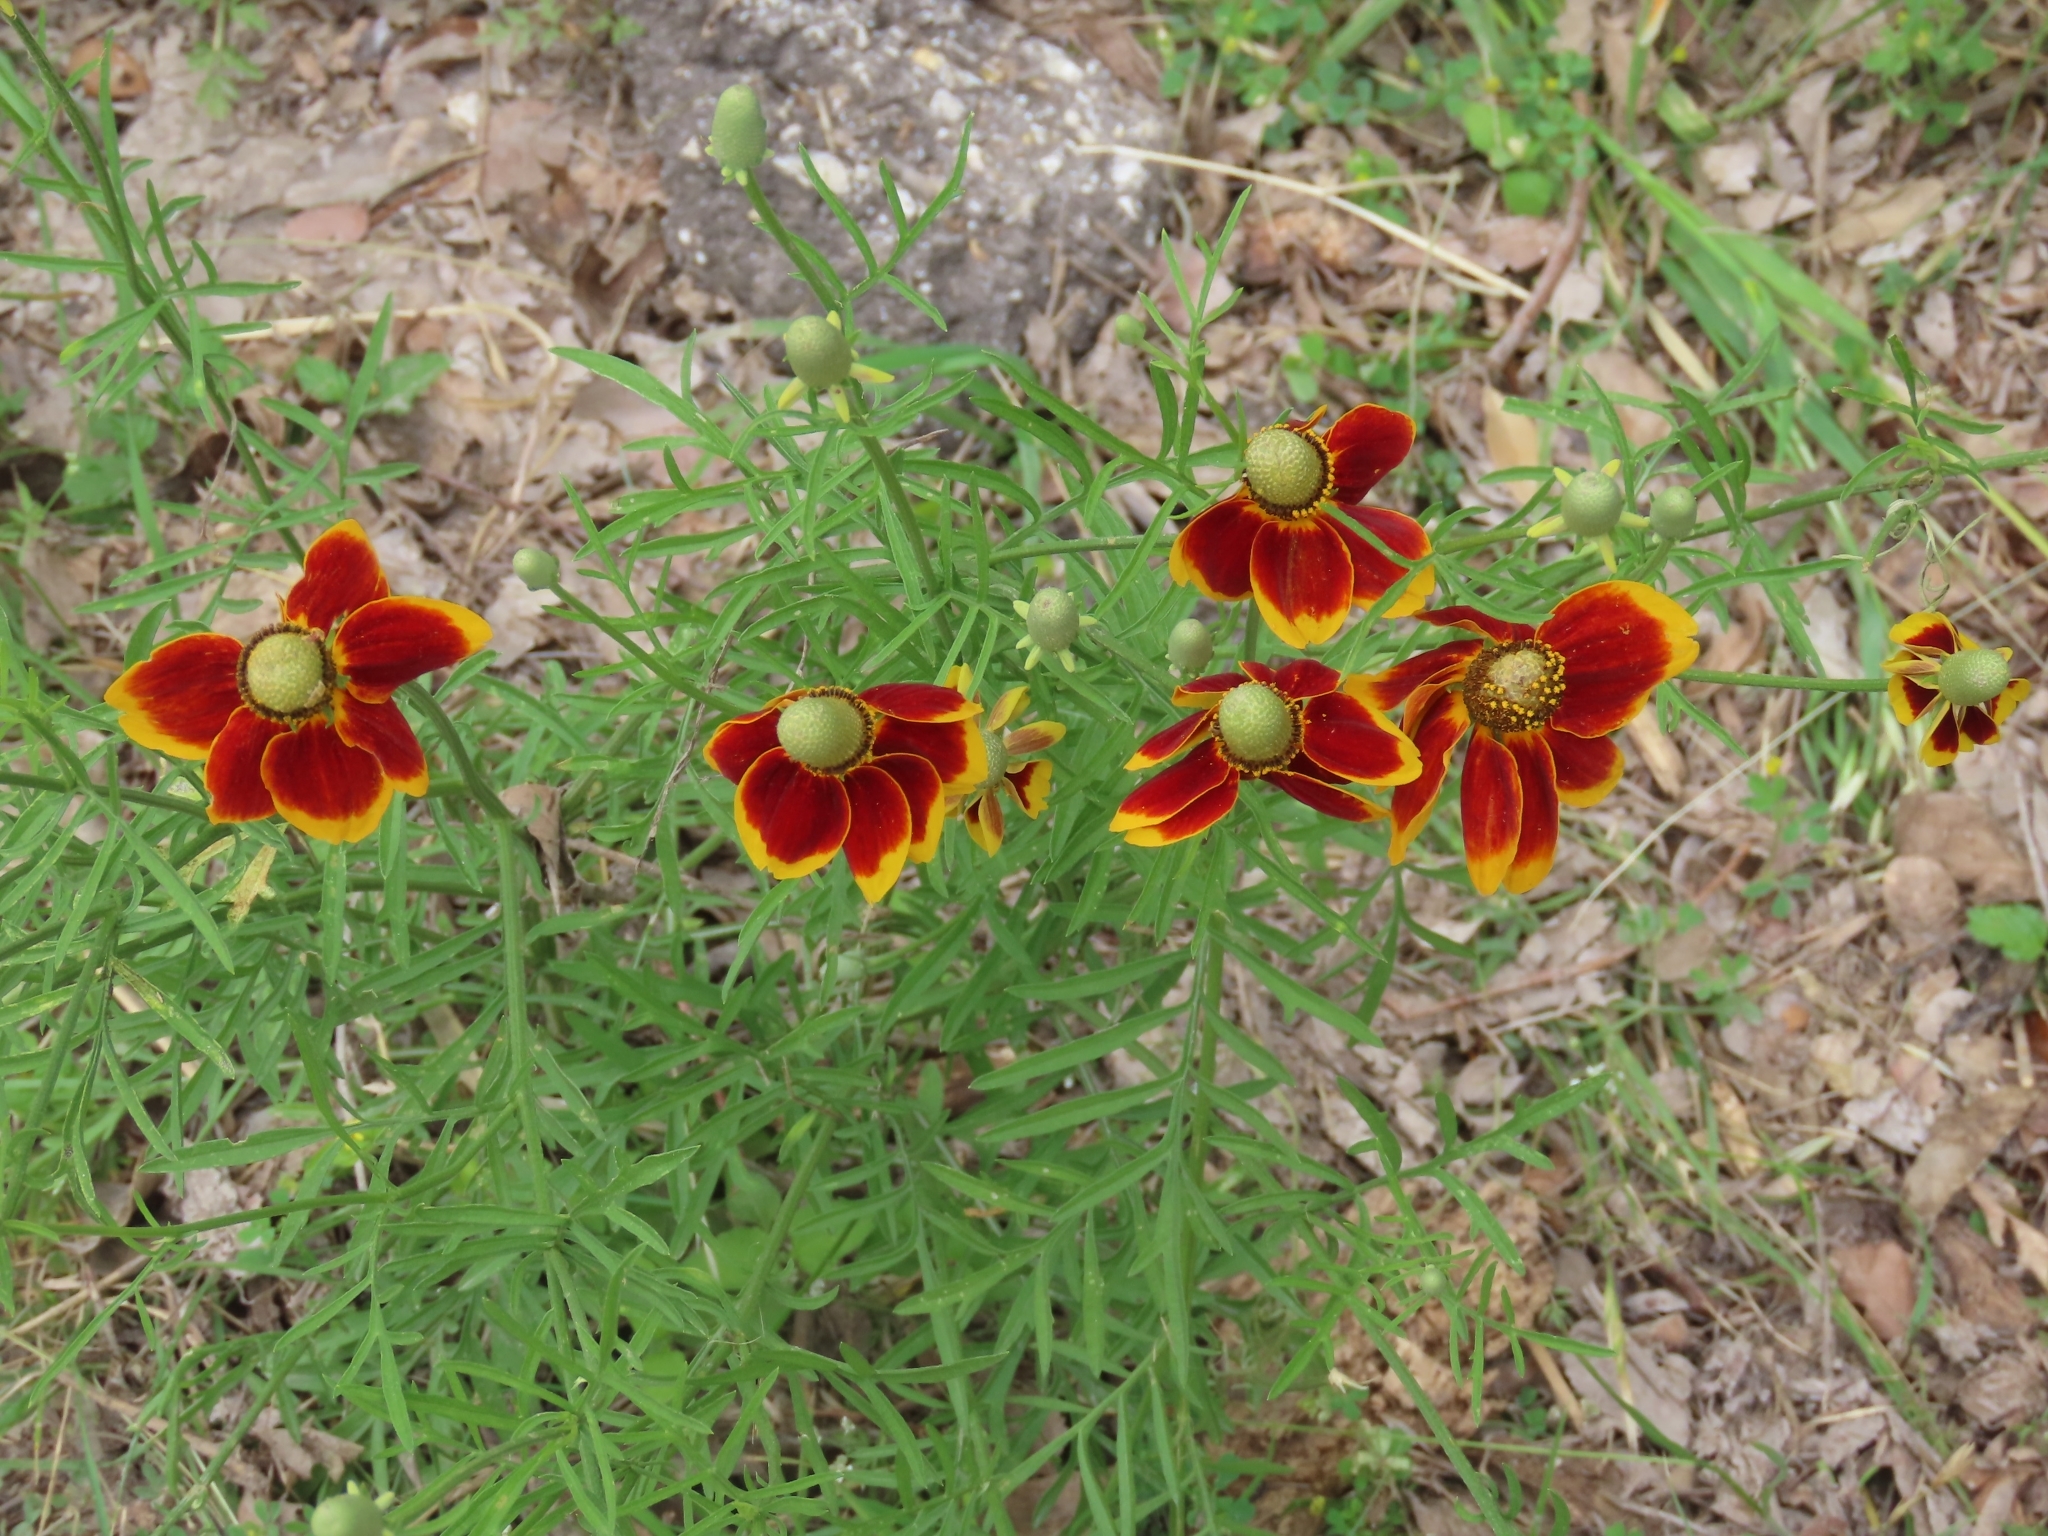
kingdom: Plantae
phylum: Tracheophyta
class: Magnoliopsida
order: Asterales
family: Asteraceae
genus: Ratibida
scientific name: Ratibida columnifera
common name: Prairie coneflower
